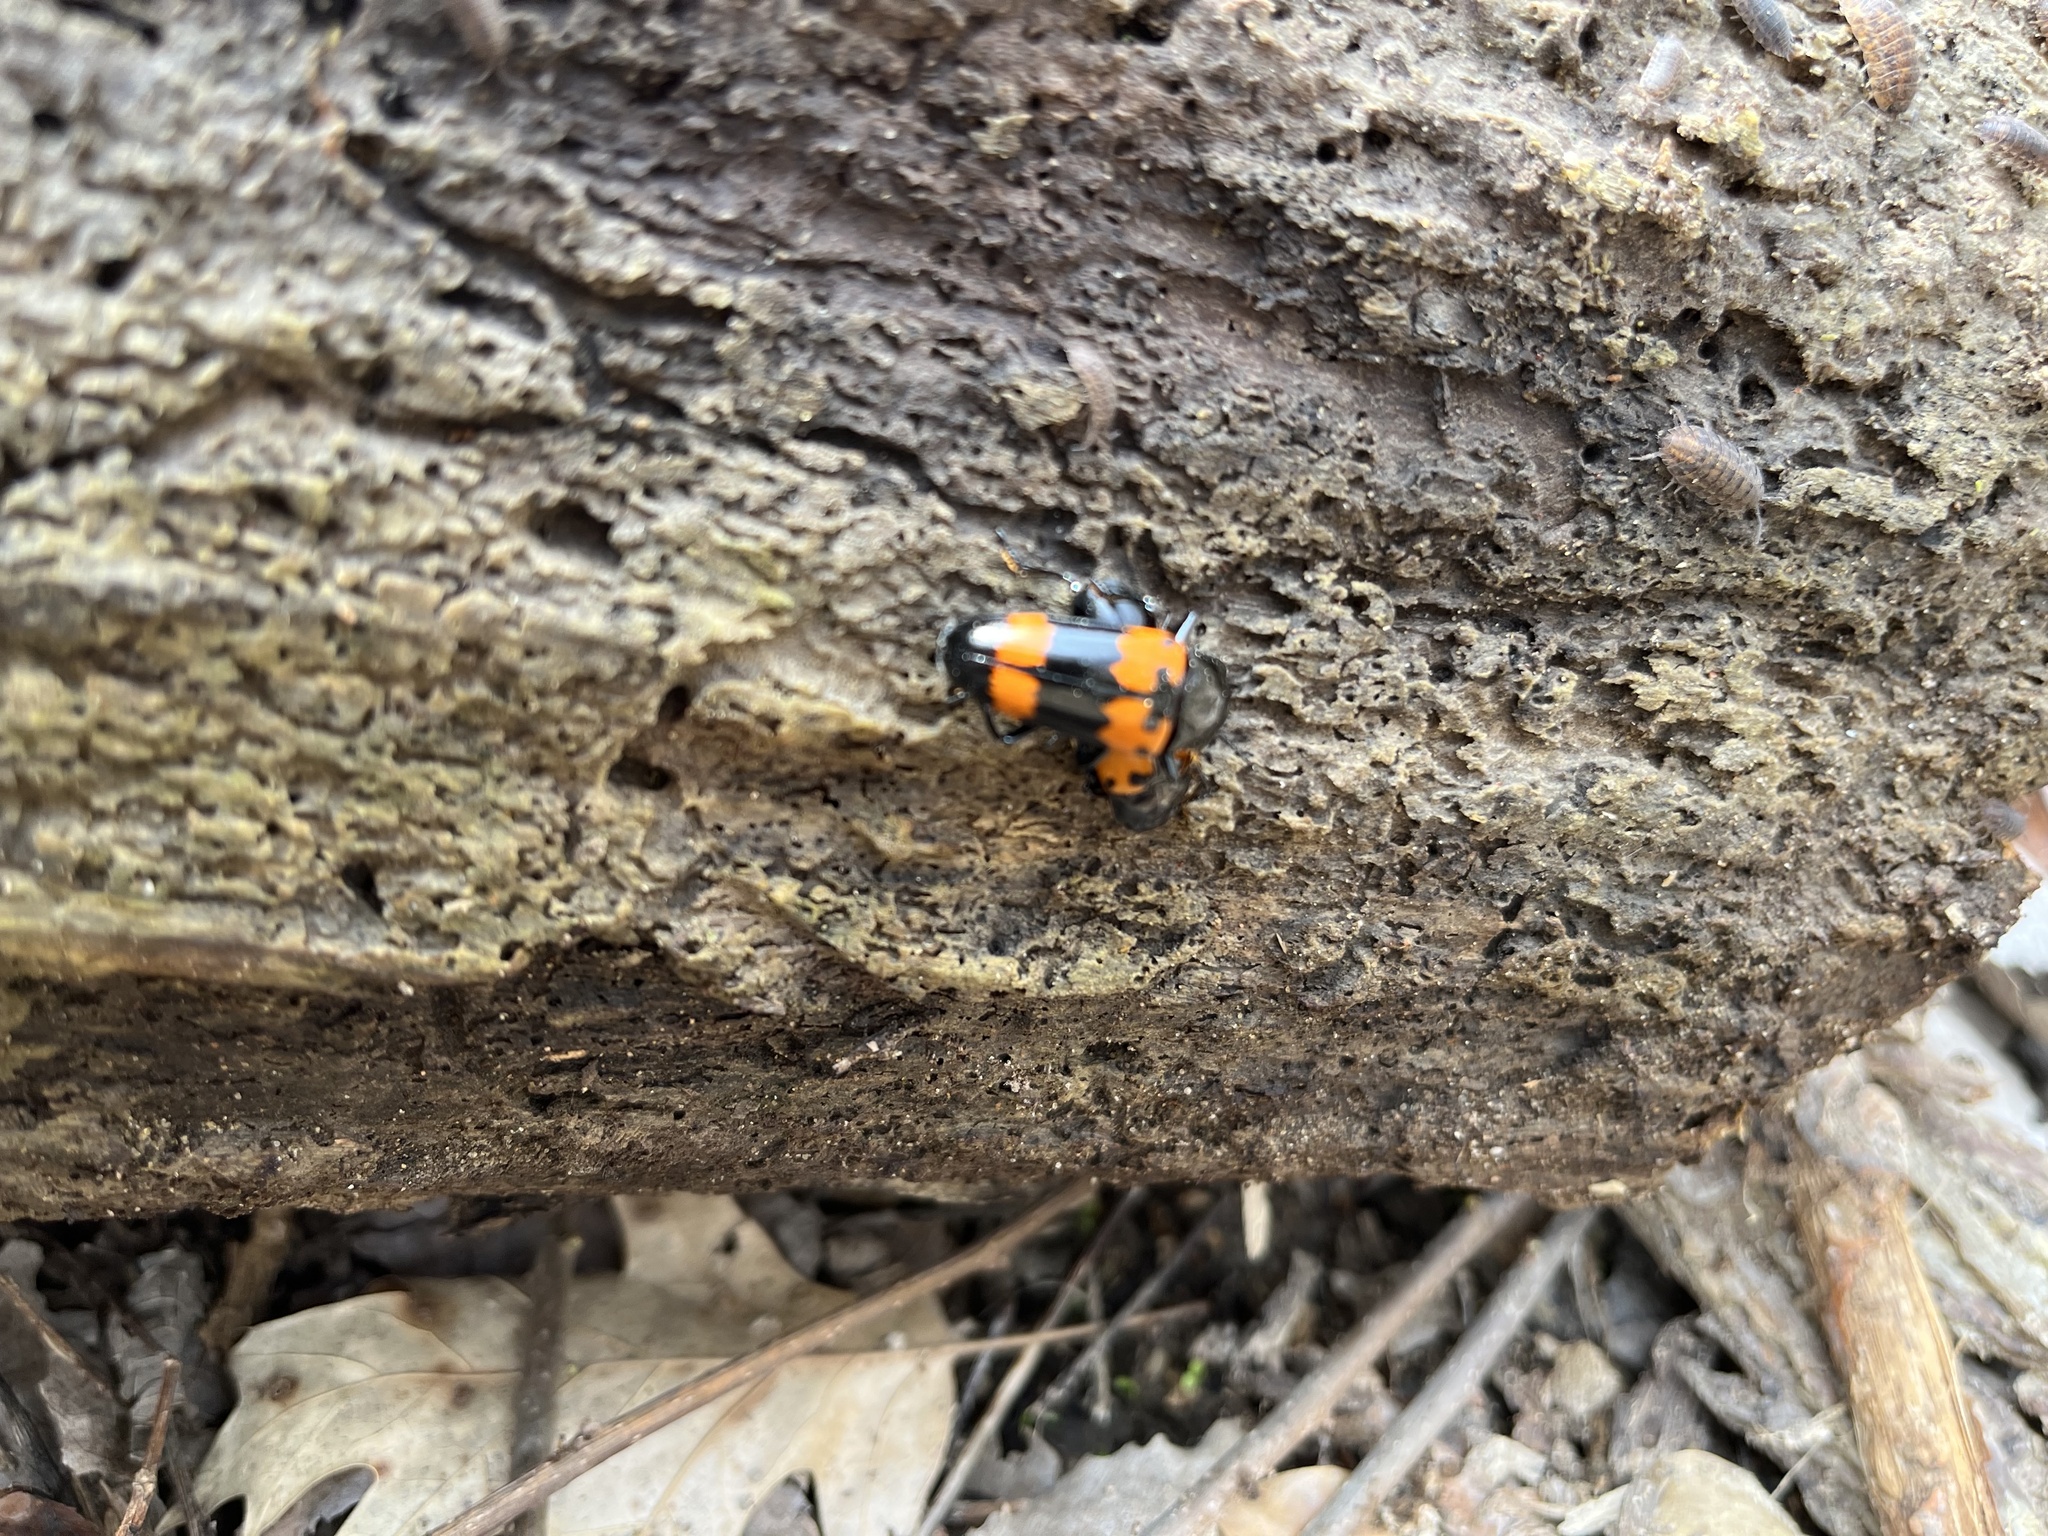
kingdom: Animalia
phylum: Arthropoda
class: Insecta
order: Coleoptera
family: Erotylidae
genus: Megalodacne
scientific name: Megalodacne heros
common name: Pleasing fungus beetle
